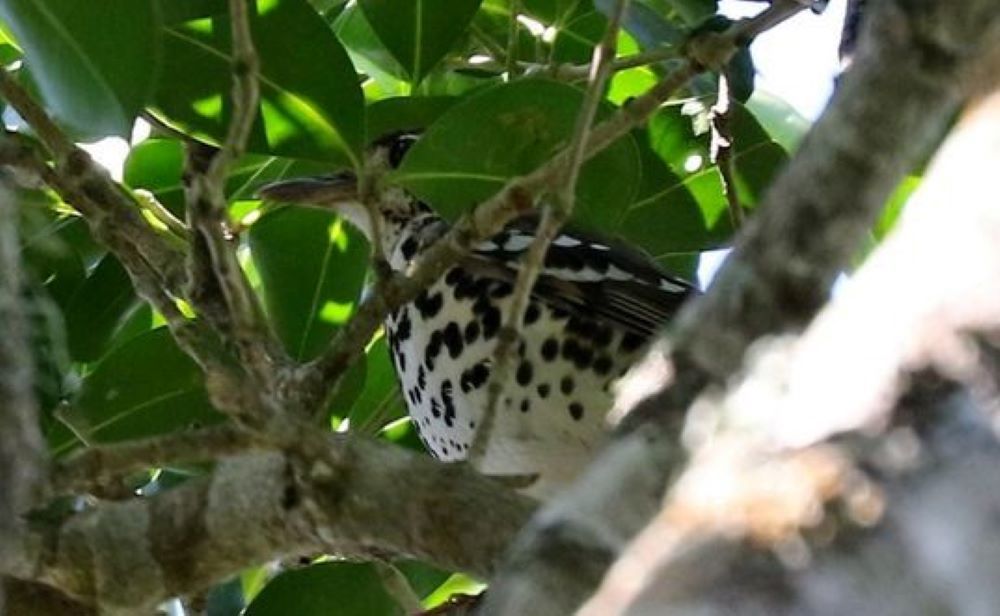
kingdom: Animalia
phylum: Chordata
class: Aves
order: Passeriformes
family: Turdidae
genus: Geokichla
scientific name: Geokichla guttata
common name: Spotted ground-thrush
